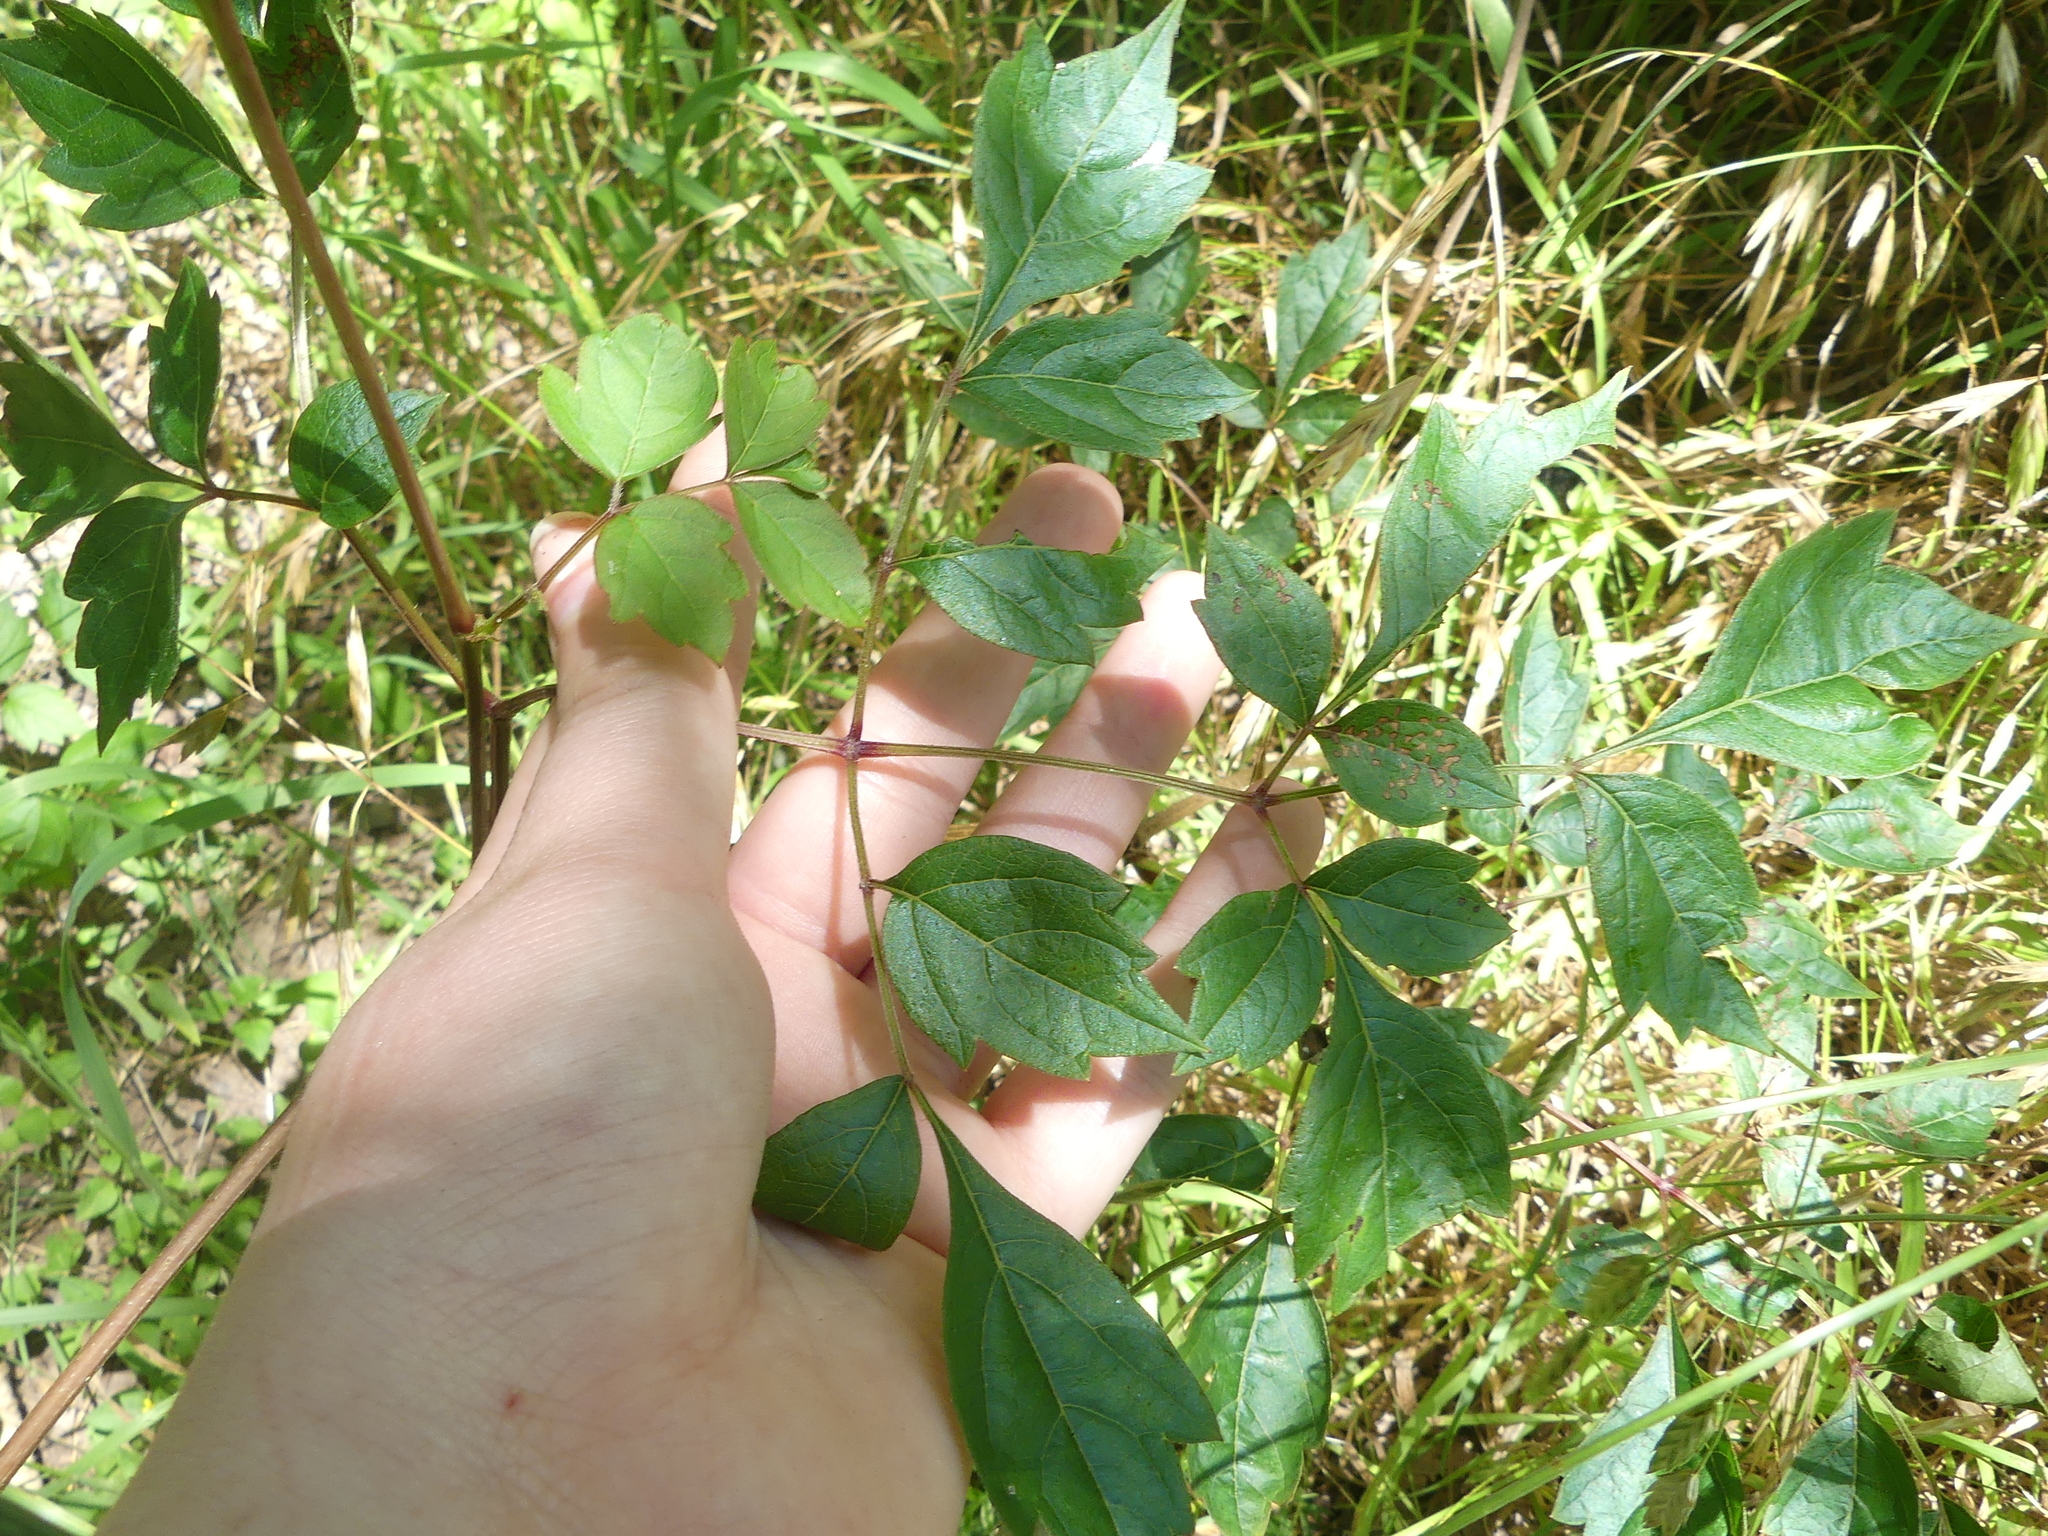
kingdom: Plantae
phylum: Tracheophyta
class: Magnoliopsida
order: Vitales
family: Vitaceae
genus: Nekemias
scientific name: Nekemias arborea
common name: Peppervine
